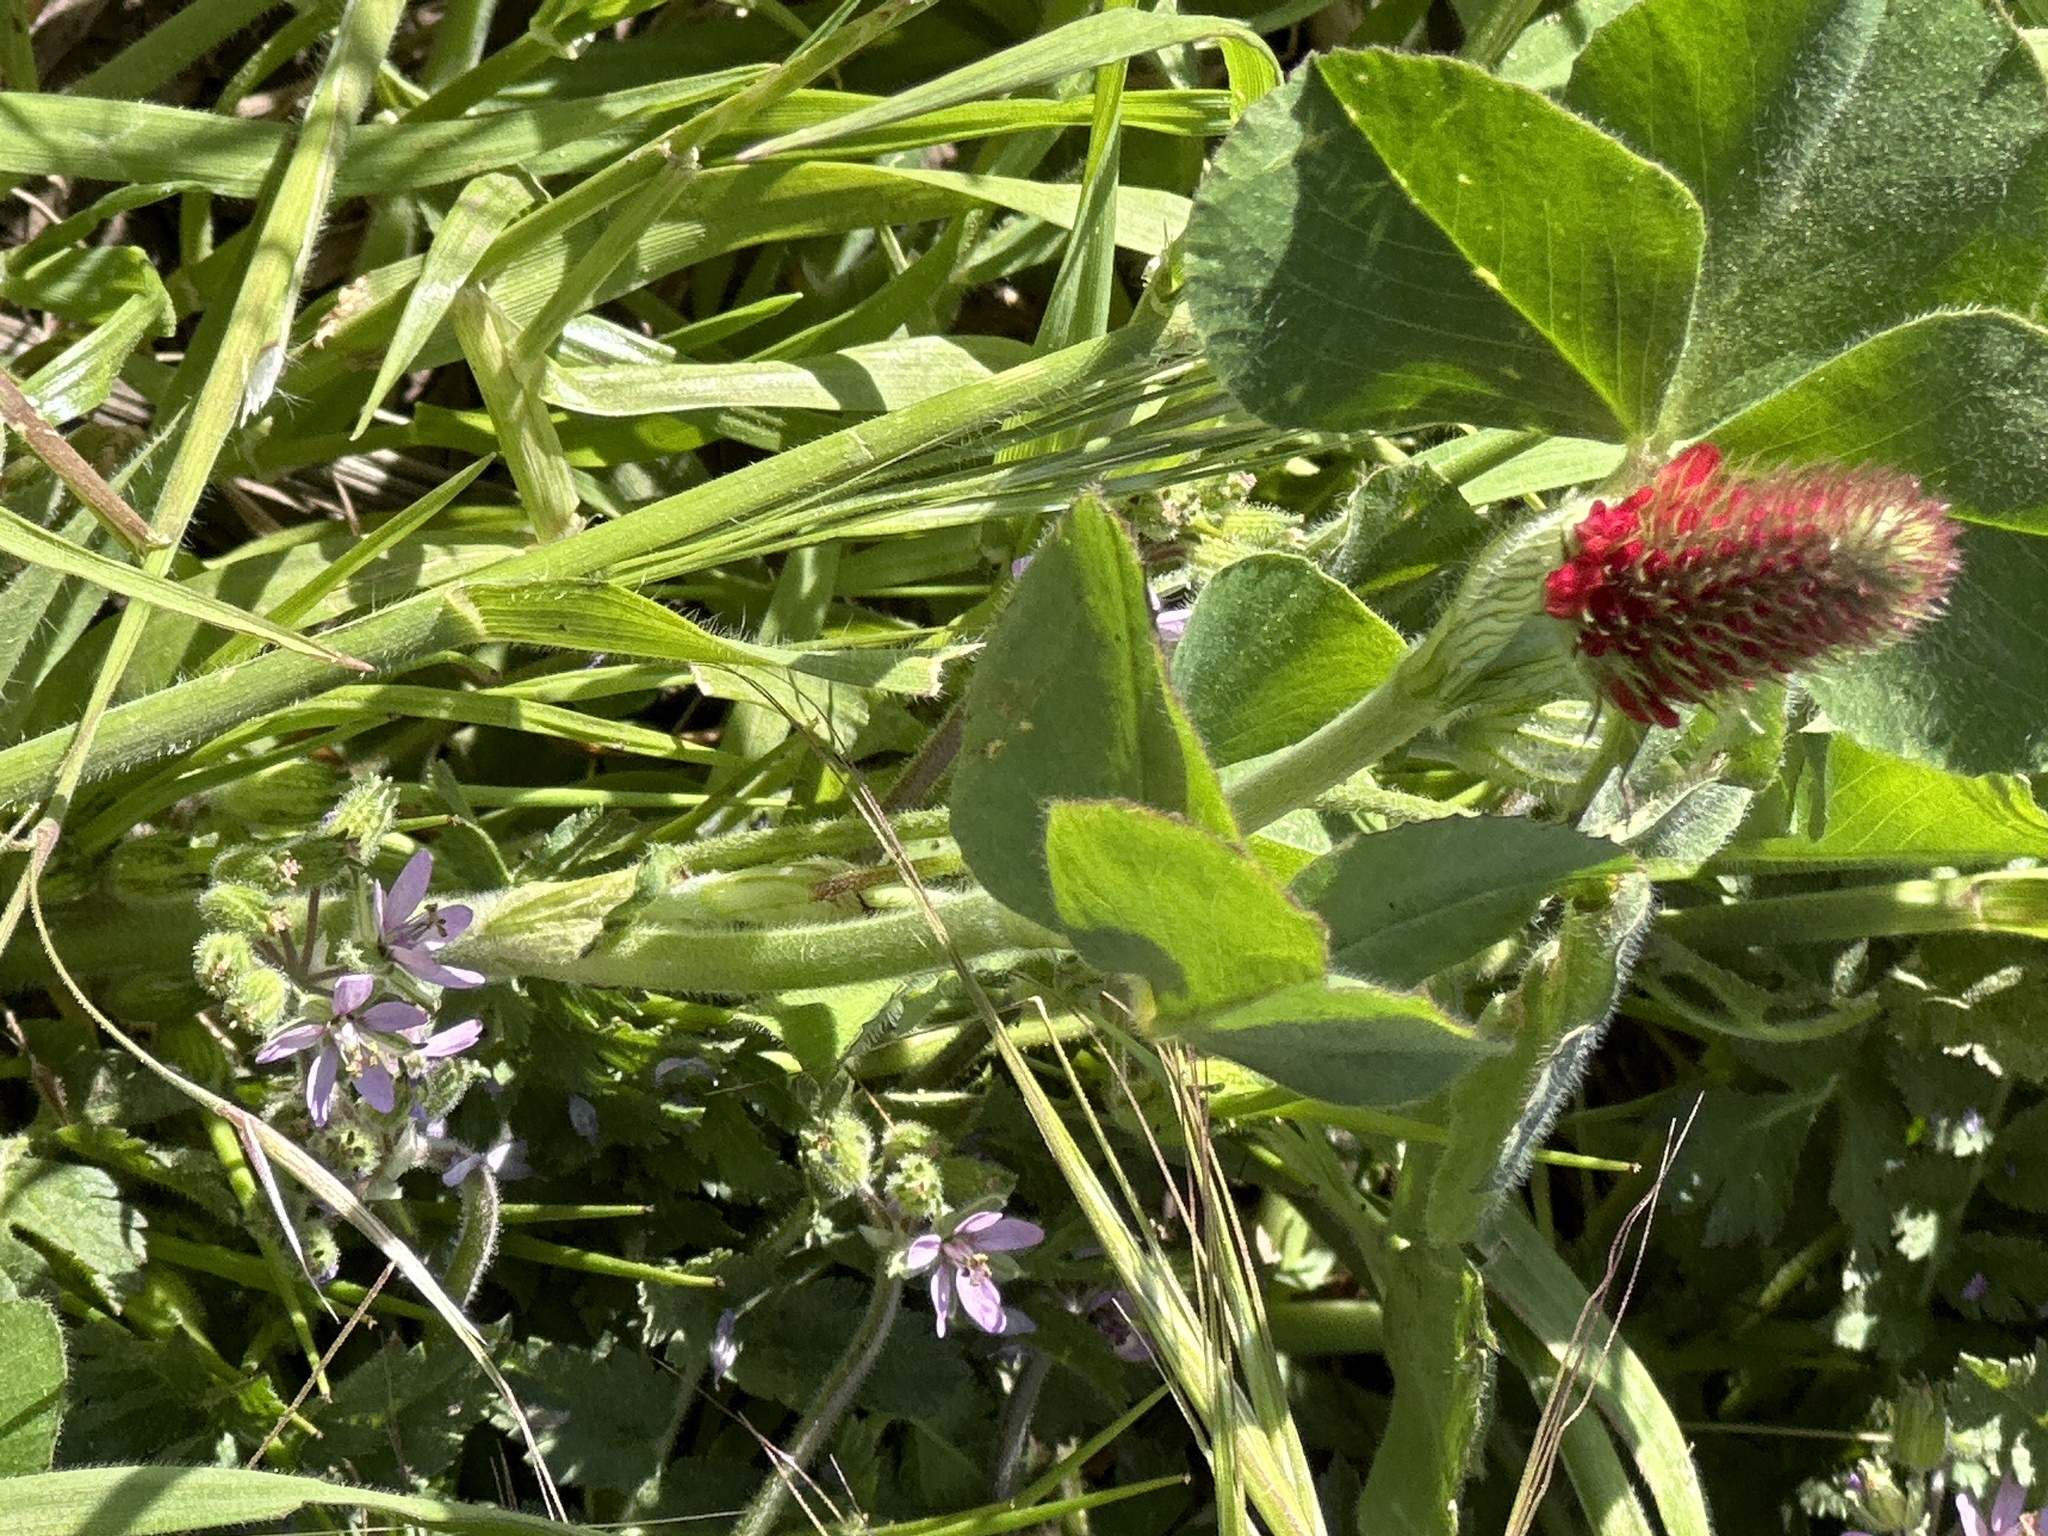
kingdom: Plantae
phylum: Tracheophyta
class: Magnoliopsida
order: Fabales
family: Fabaceae
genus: Trifolium
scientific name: Trifolium incarnatum
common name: Crimson clover
